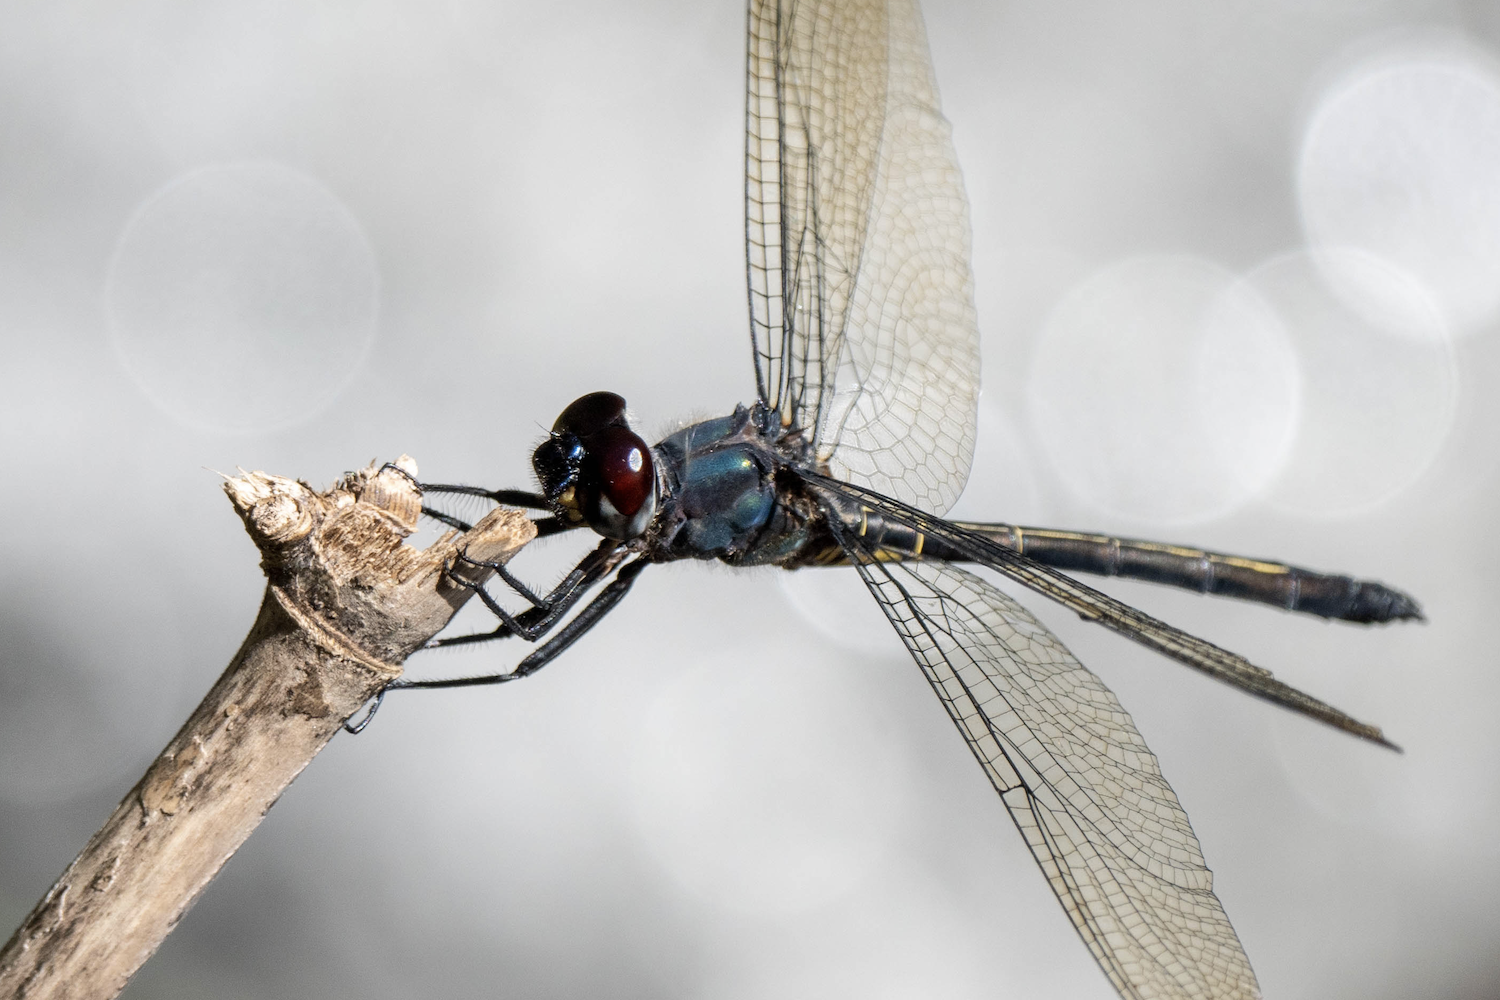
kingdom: Animalia
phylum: Arthropoda
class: Insecta
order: Odonata
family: Libellulidae
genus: Zygonyx
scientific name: Zygonyx iris
